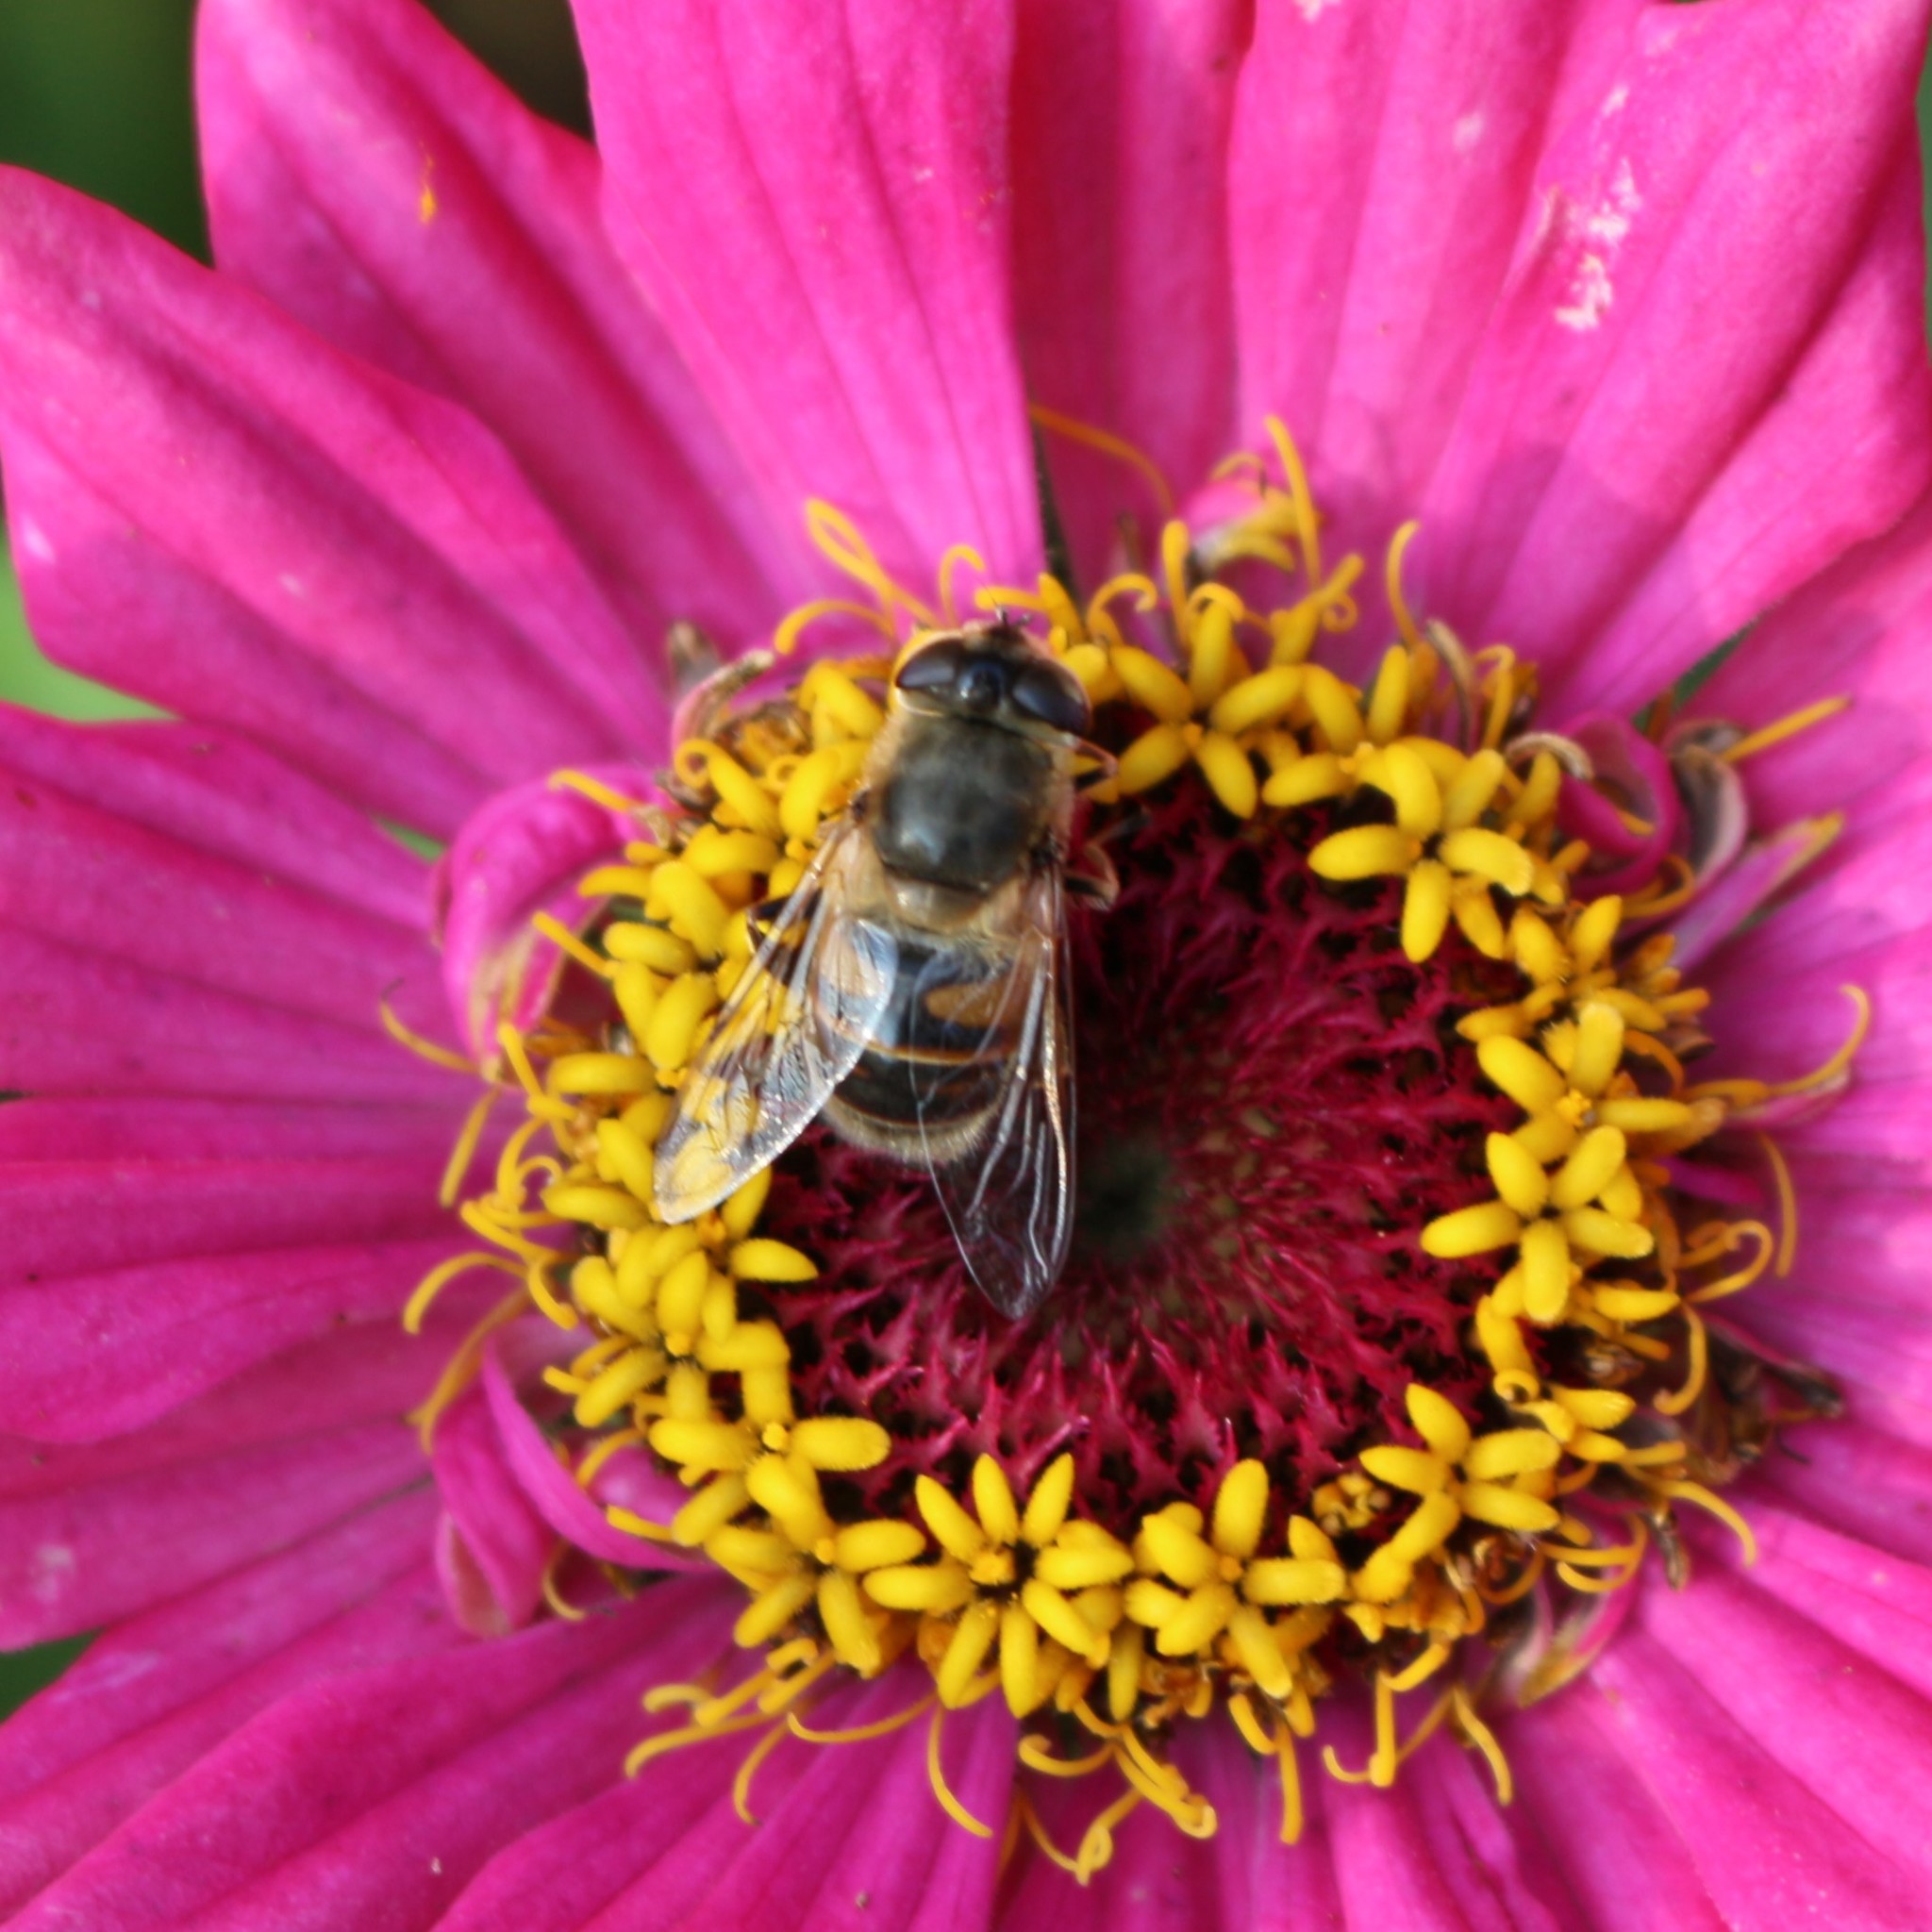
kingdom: Animalia
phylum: Arthropoda
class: Insecta
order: Diptera
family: Syrphidae
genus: Eristalis
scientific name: Eristalis tenax
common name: Drone fly
